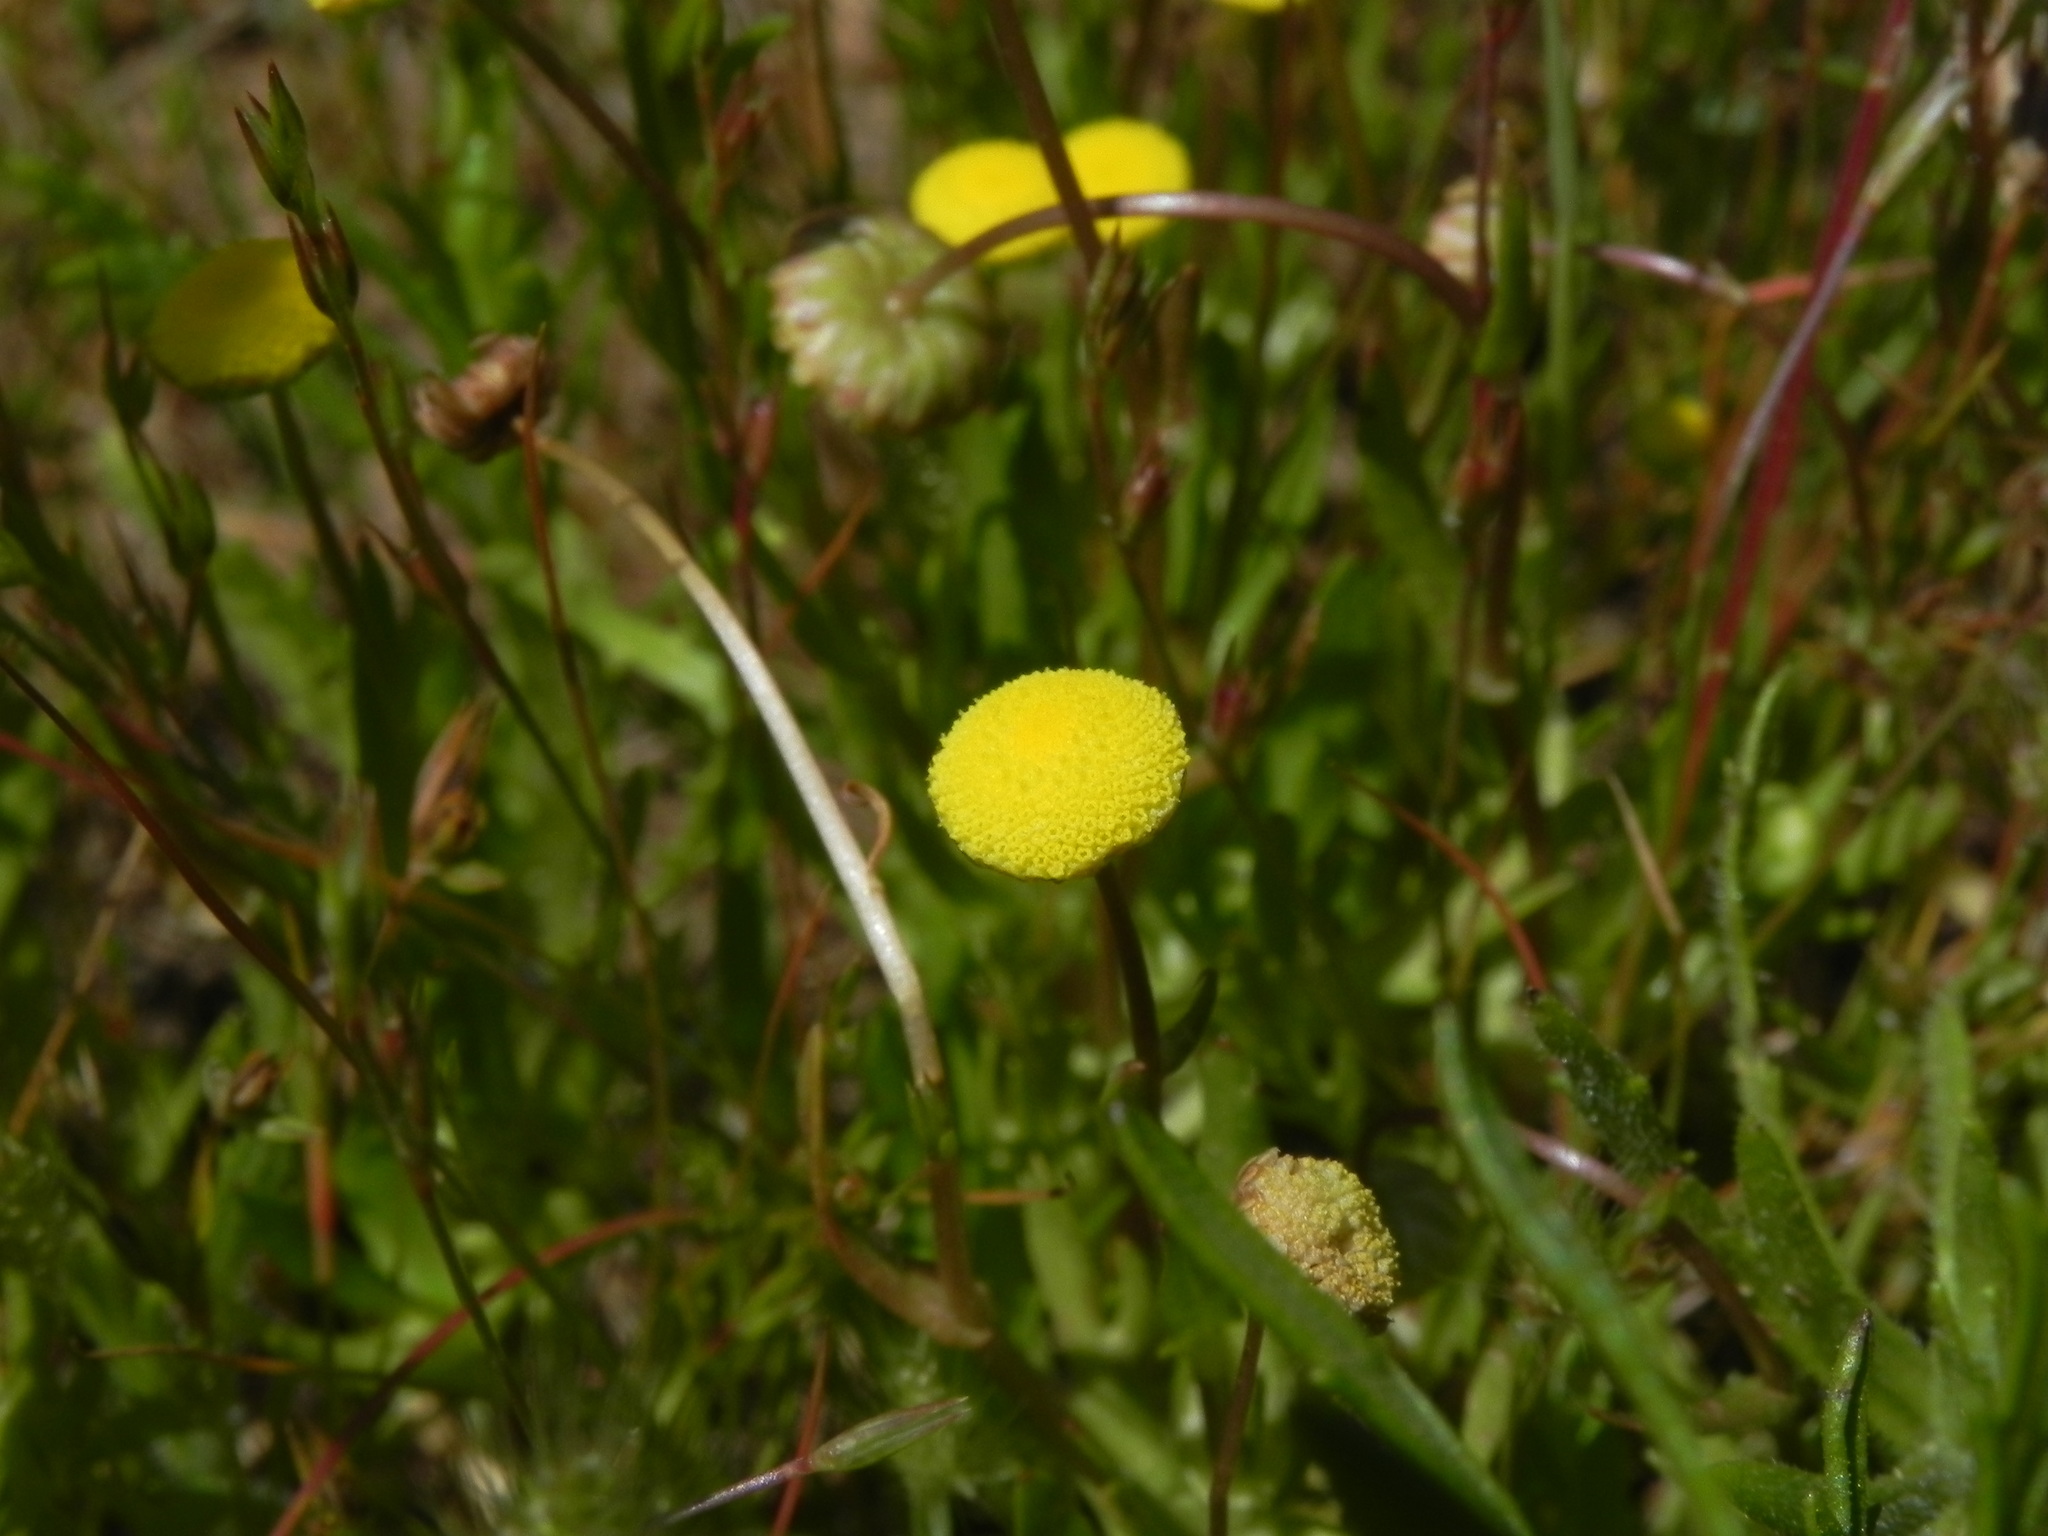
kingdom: Plantae
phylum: Tracheophyta
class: Magnoliopsida
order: Asterales
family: Asteraceae
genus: Cotula
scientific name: Cotula coronopifolia
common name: Buttonweed
